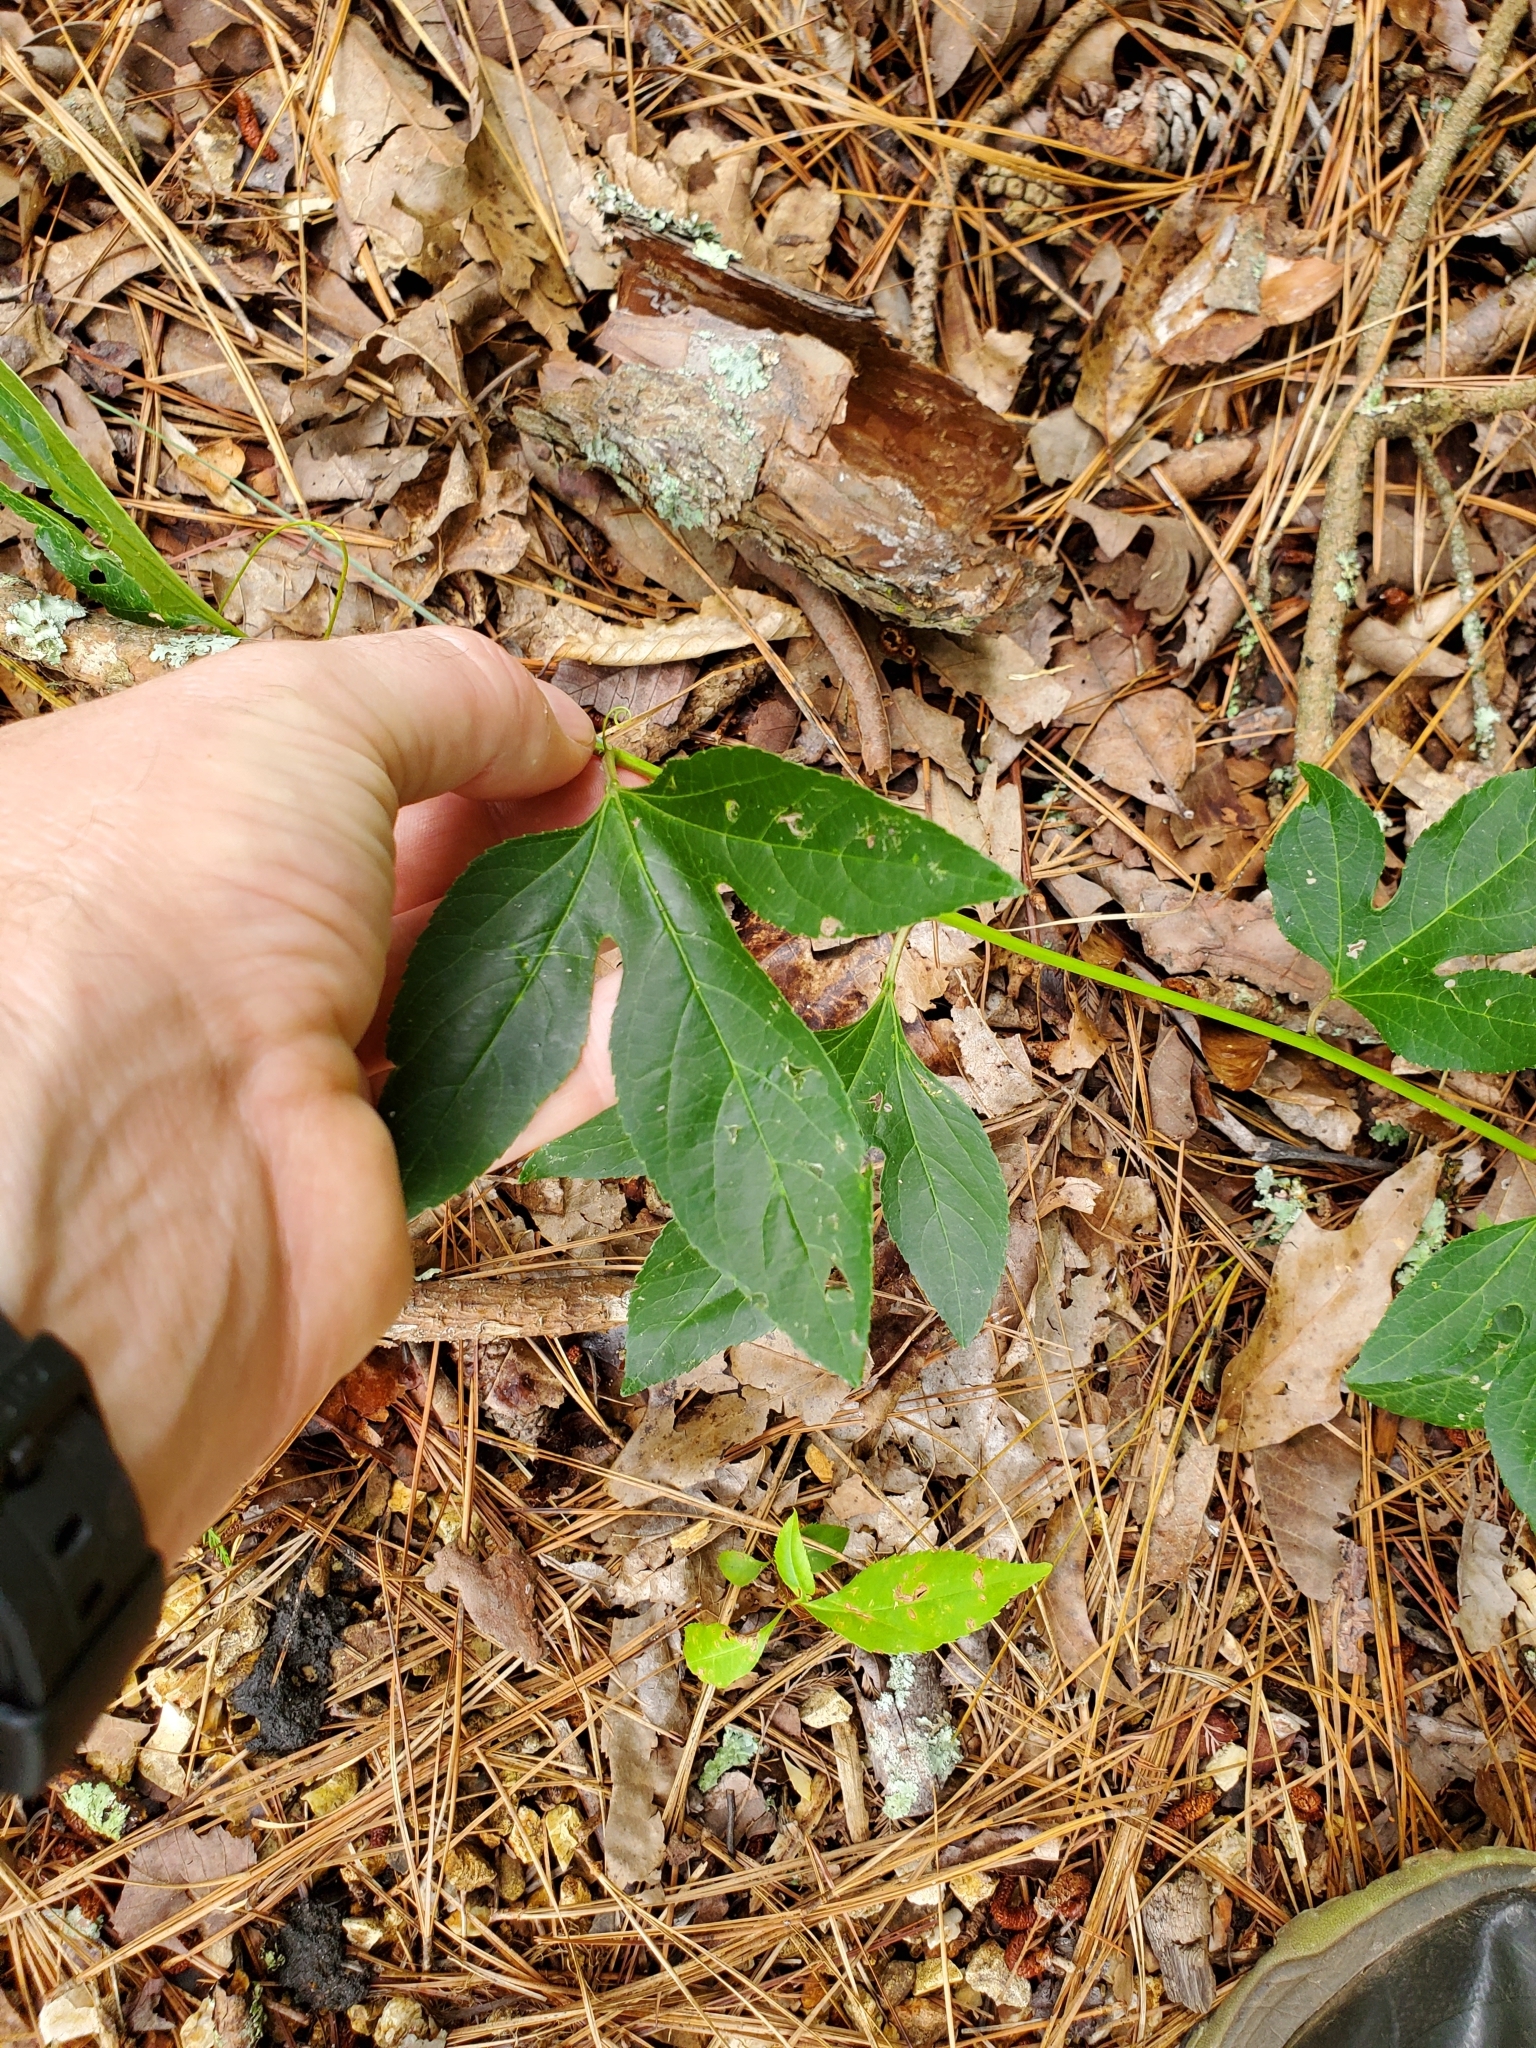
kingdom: Plantae
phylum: Tracheophyta
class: Magnoliopsida
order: Malpighiales
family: Passifloraceae
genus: Passiflora
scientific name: Passiflora incarnata
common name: Apricot-vine
